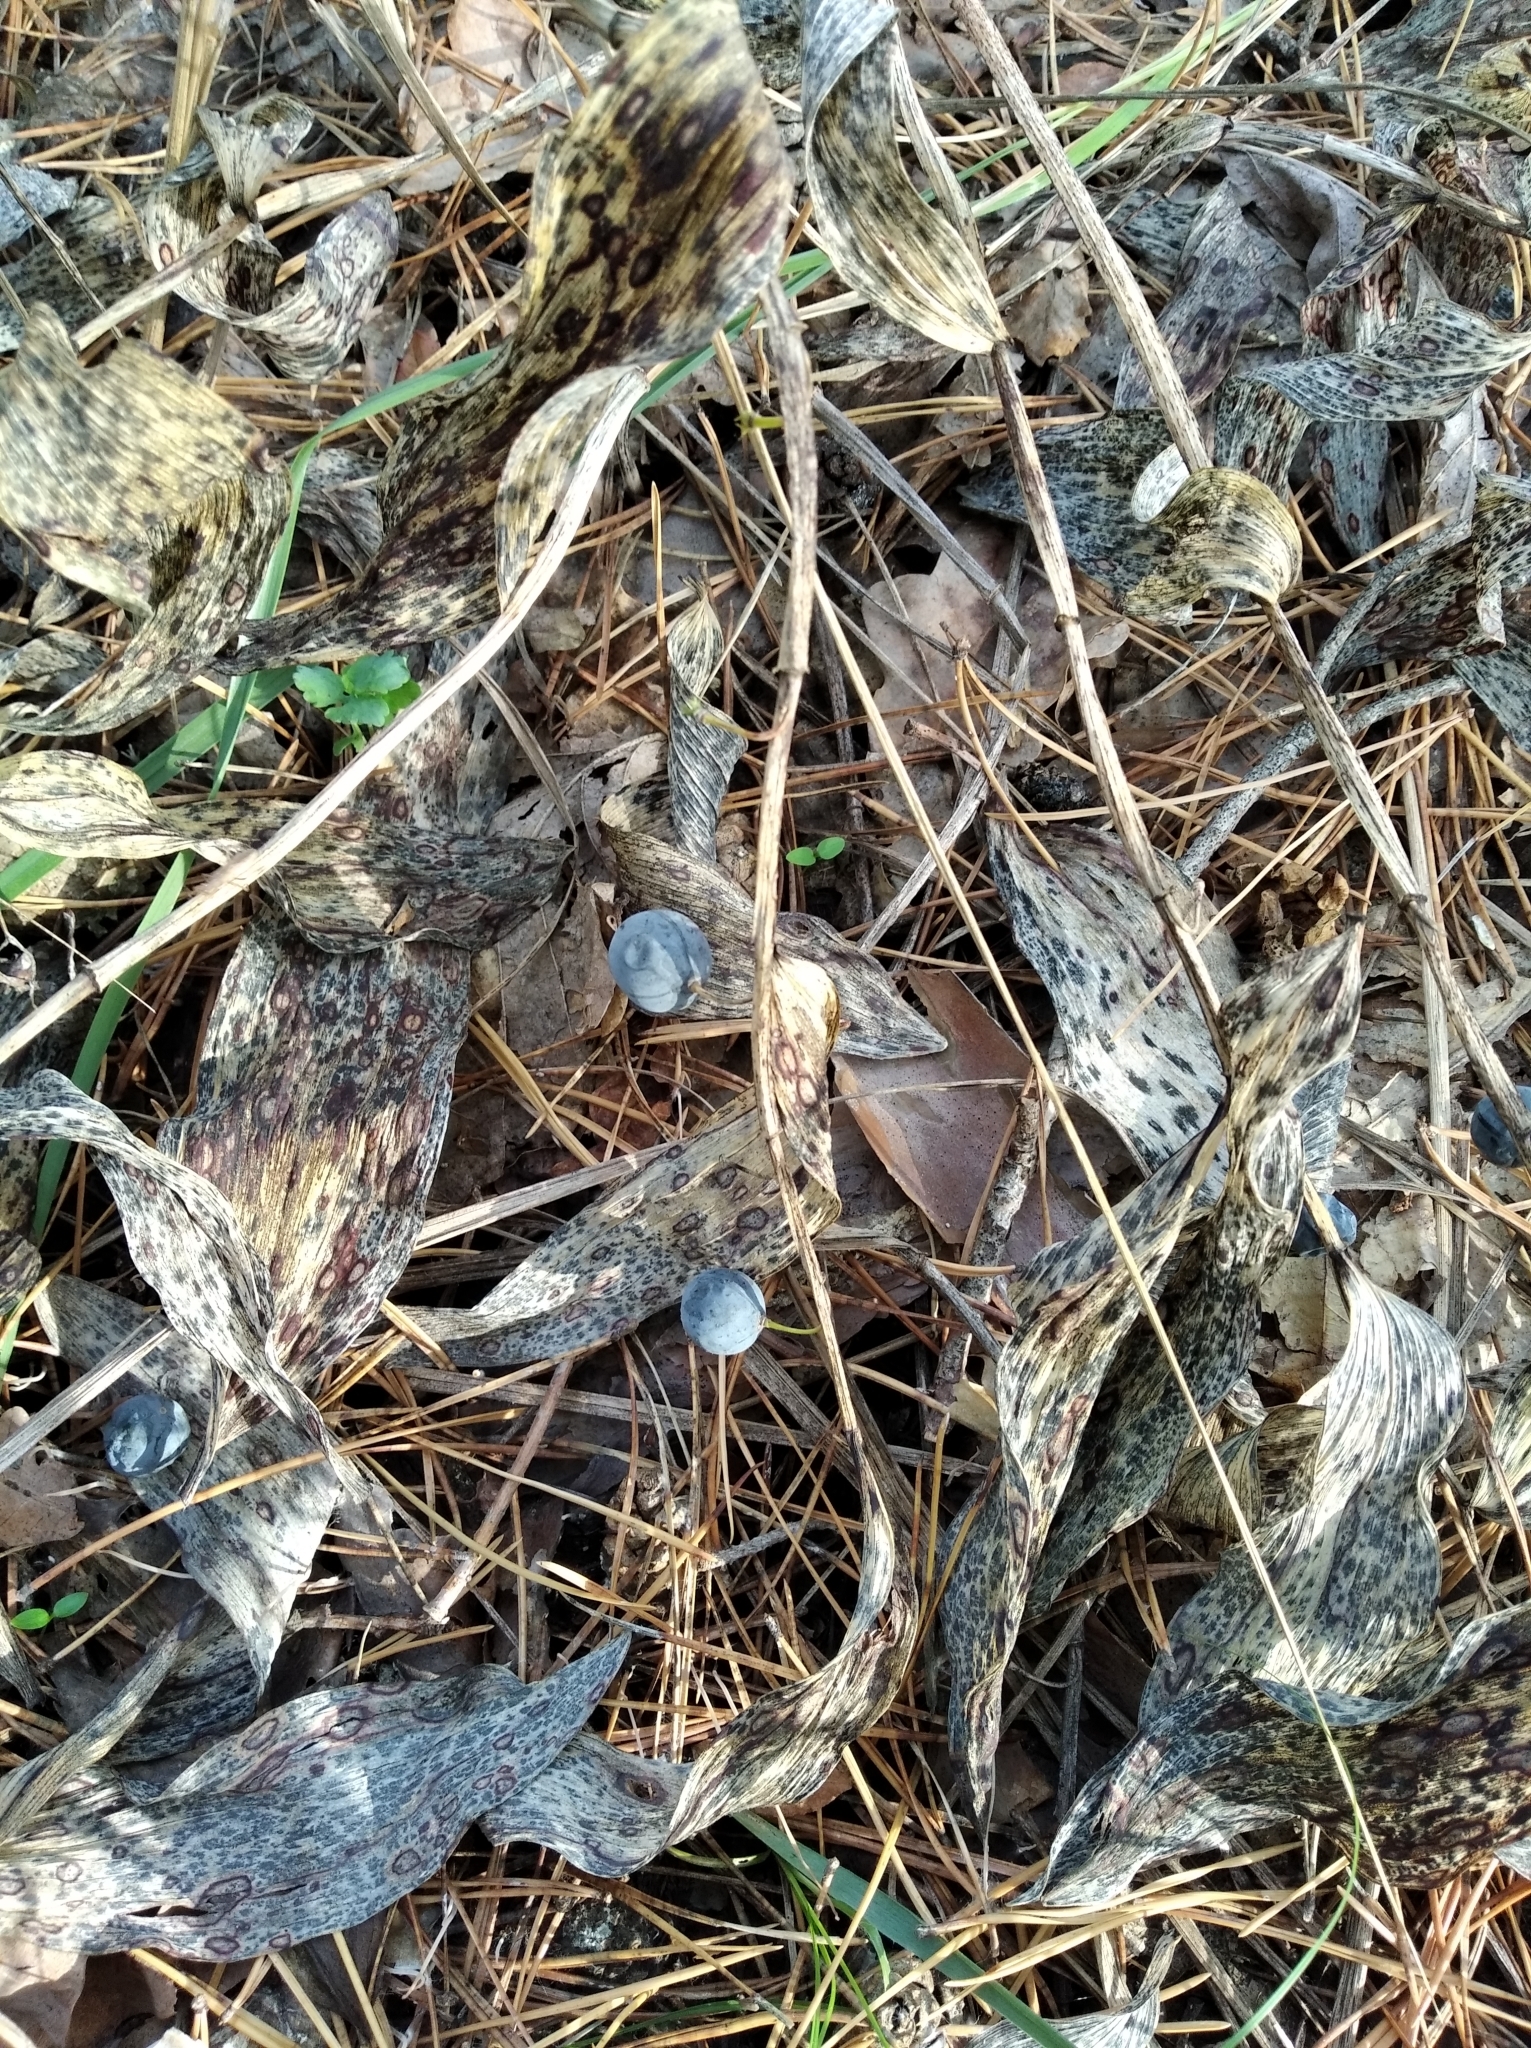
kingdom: Plantae
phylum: Tracheophyta
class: Liliopsida
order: Asparagales
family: Asparagaceae
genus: Polygonatum
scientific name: Polygonatum odoratum
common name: Angular solomon's-seal
